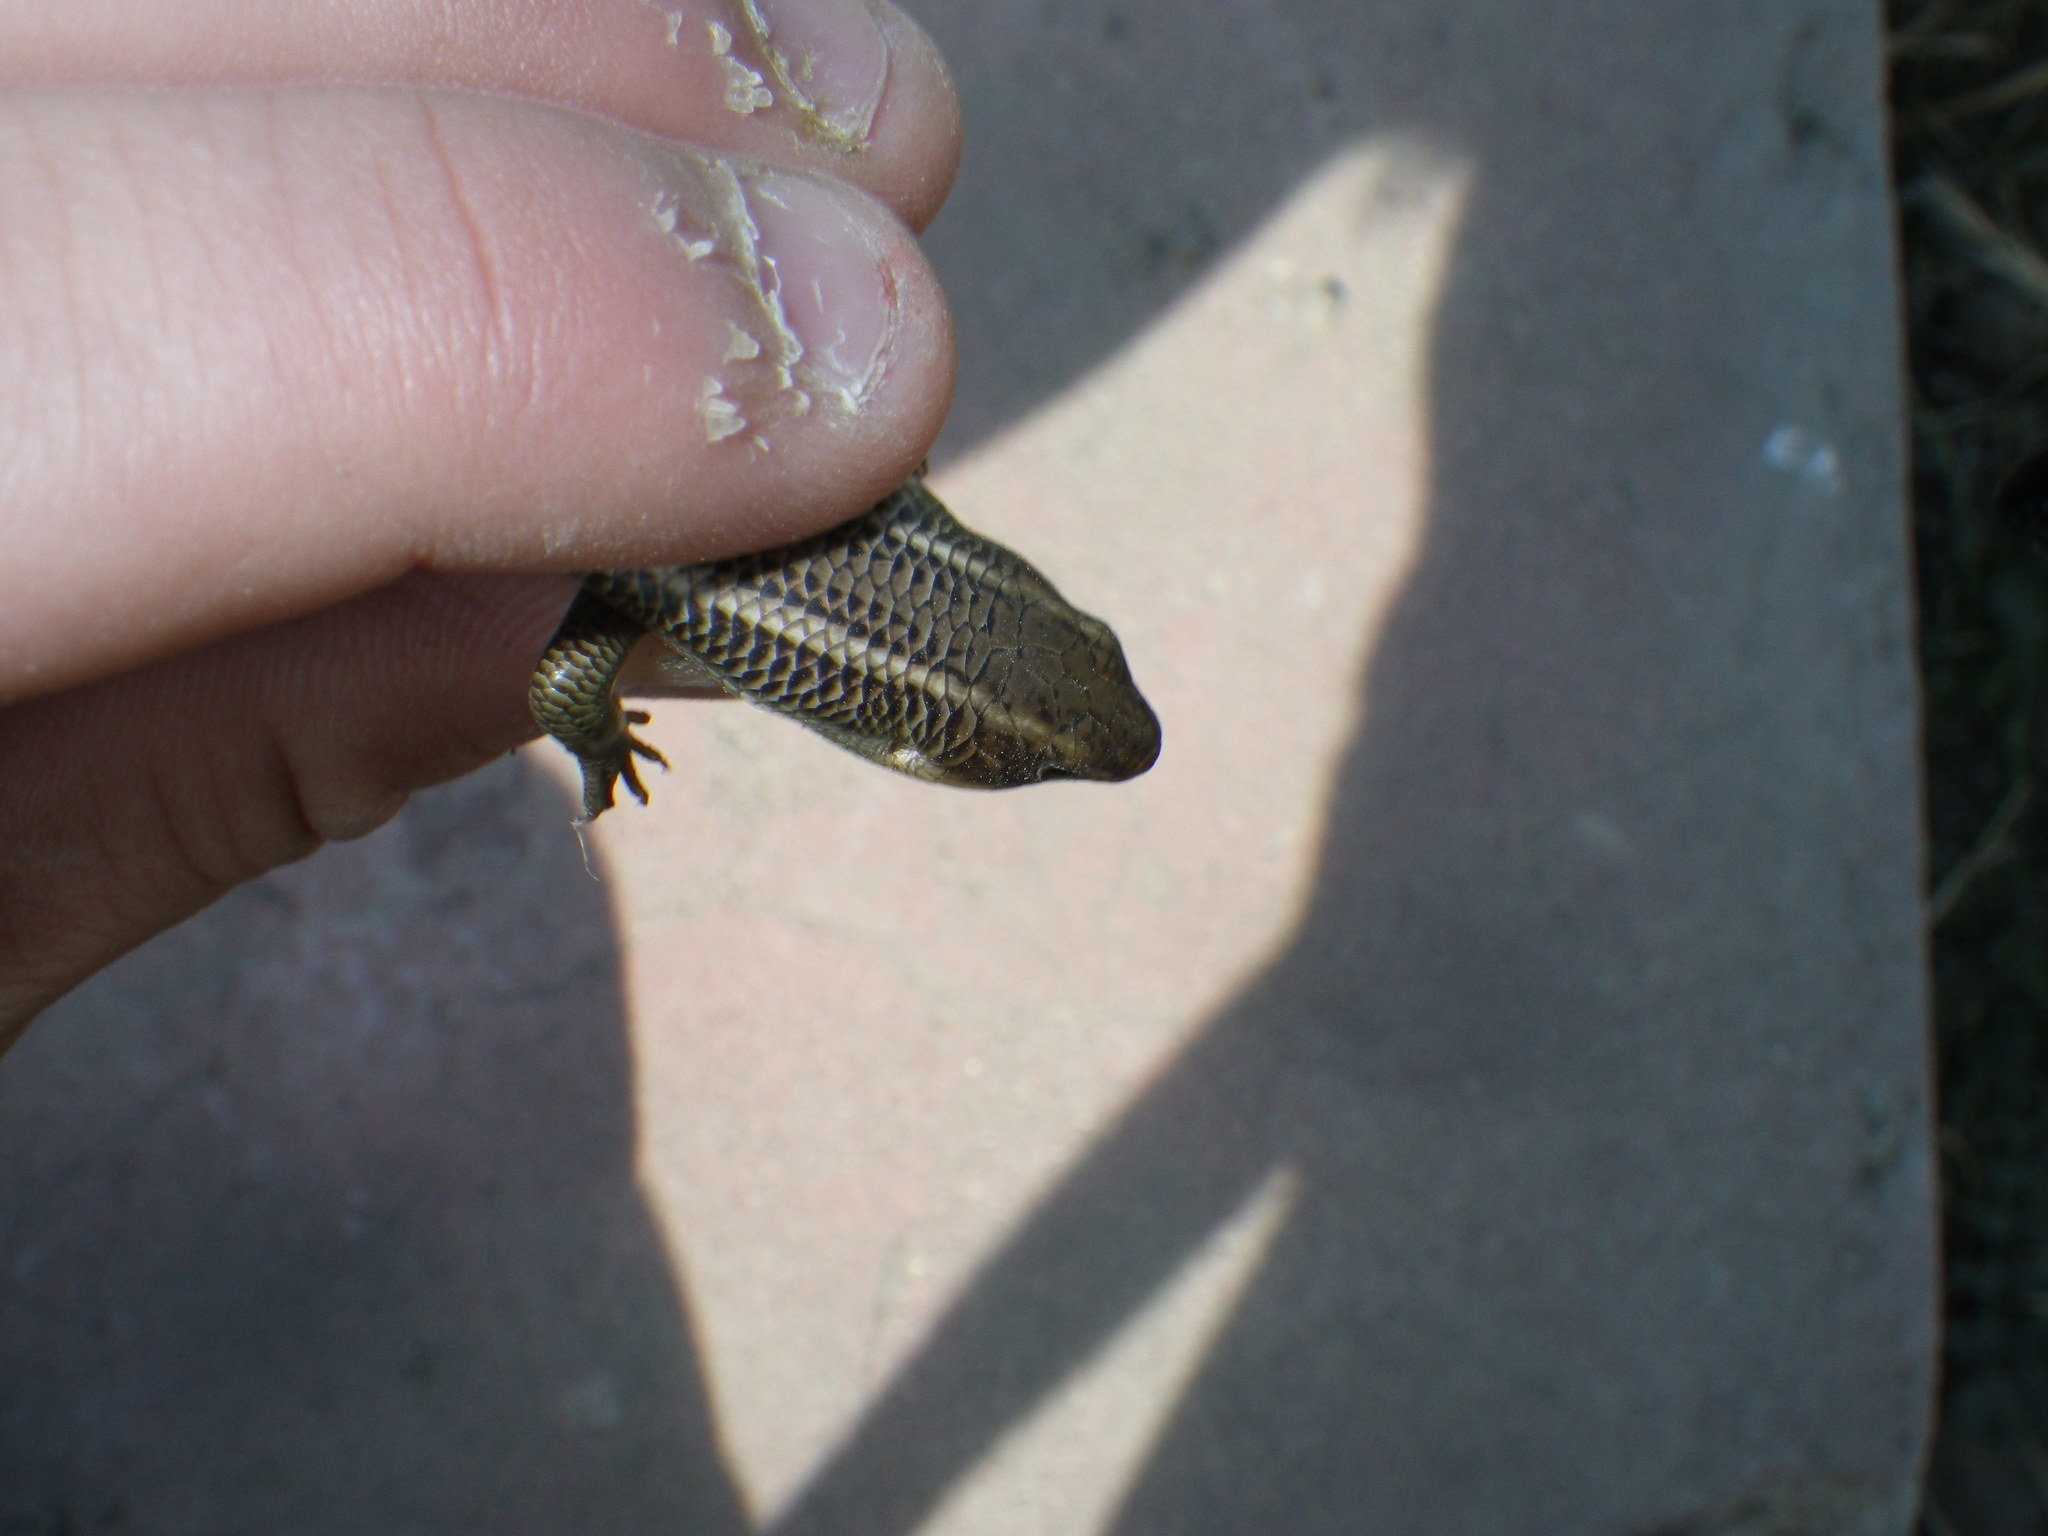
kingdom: Animalia
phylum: Chordata
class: Squamata
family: Scincidae
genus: Plestiodon
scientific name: Plestiodon gilberti
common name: Gilbert's skink
